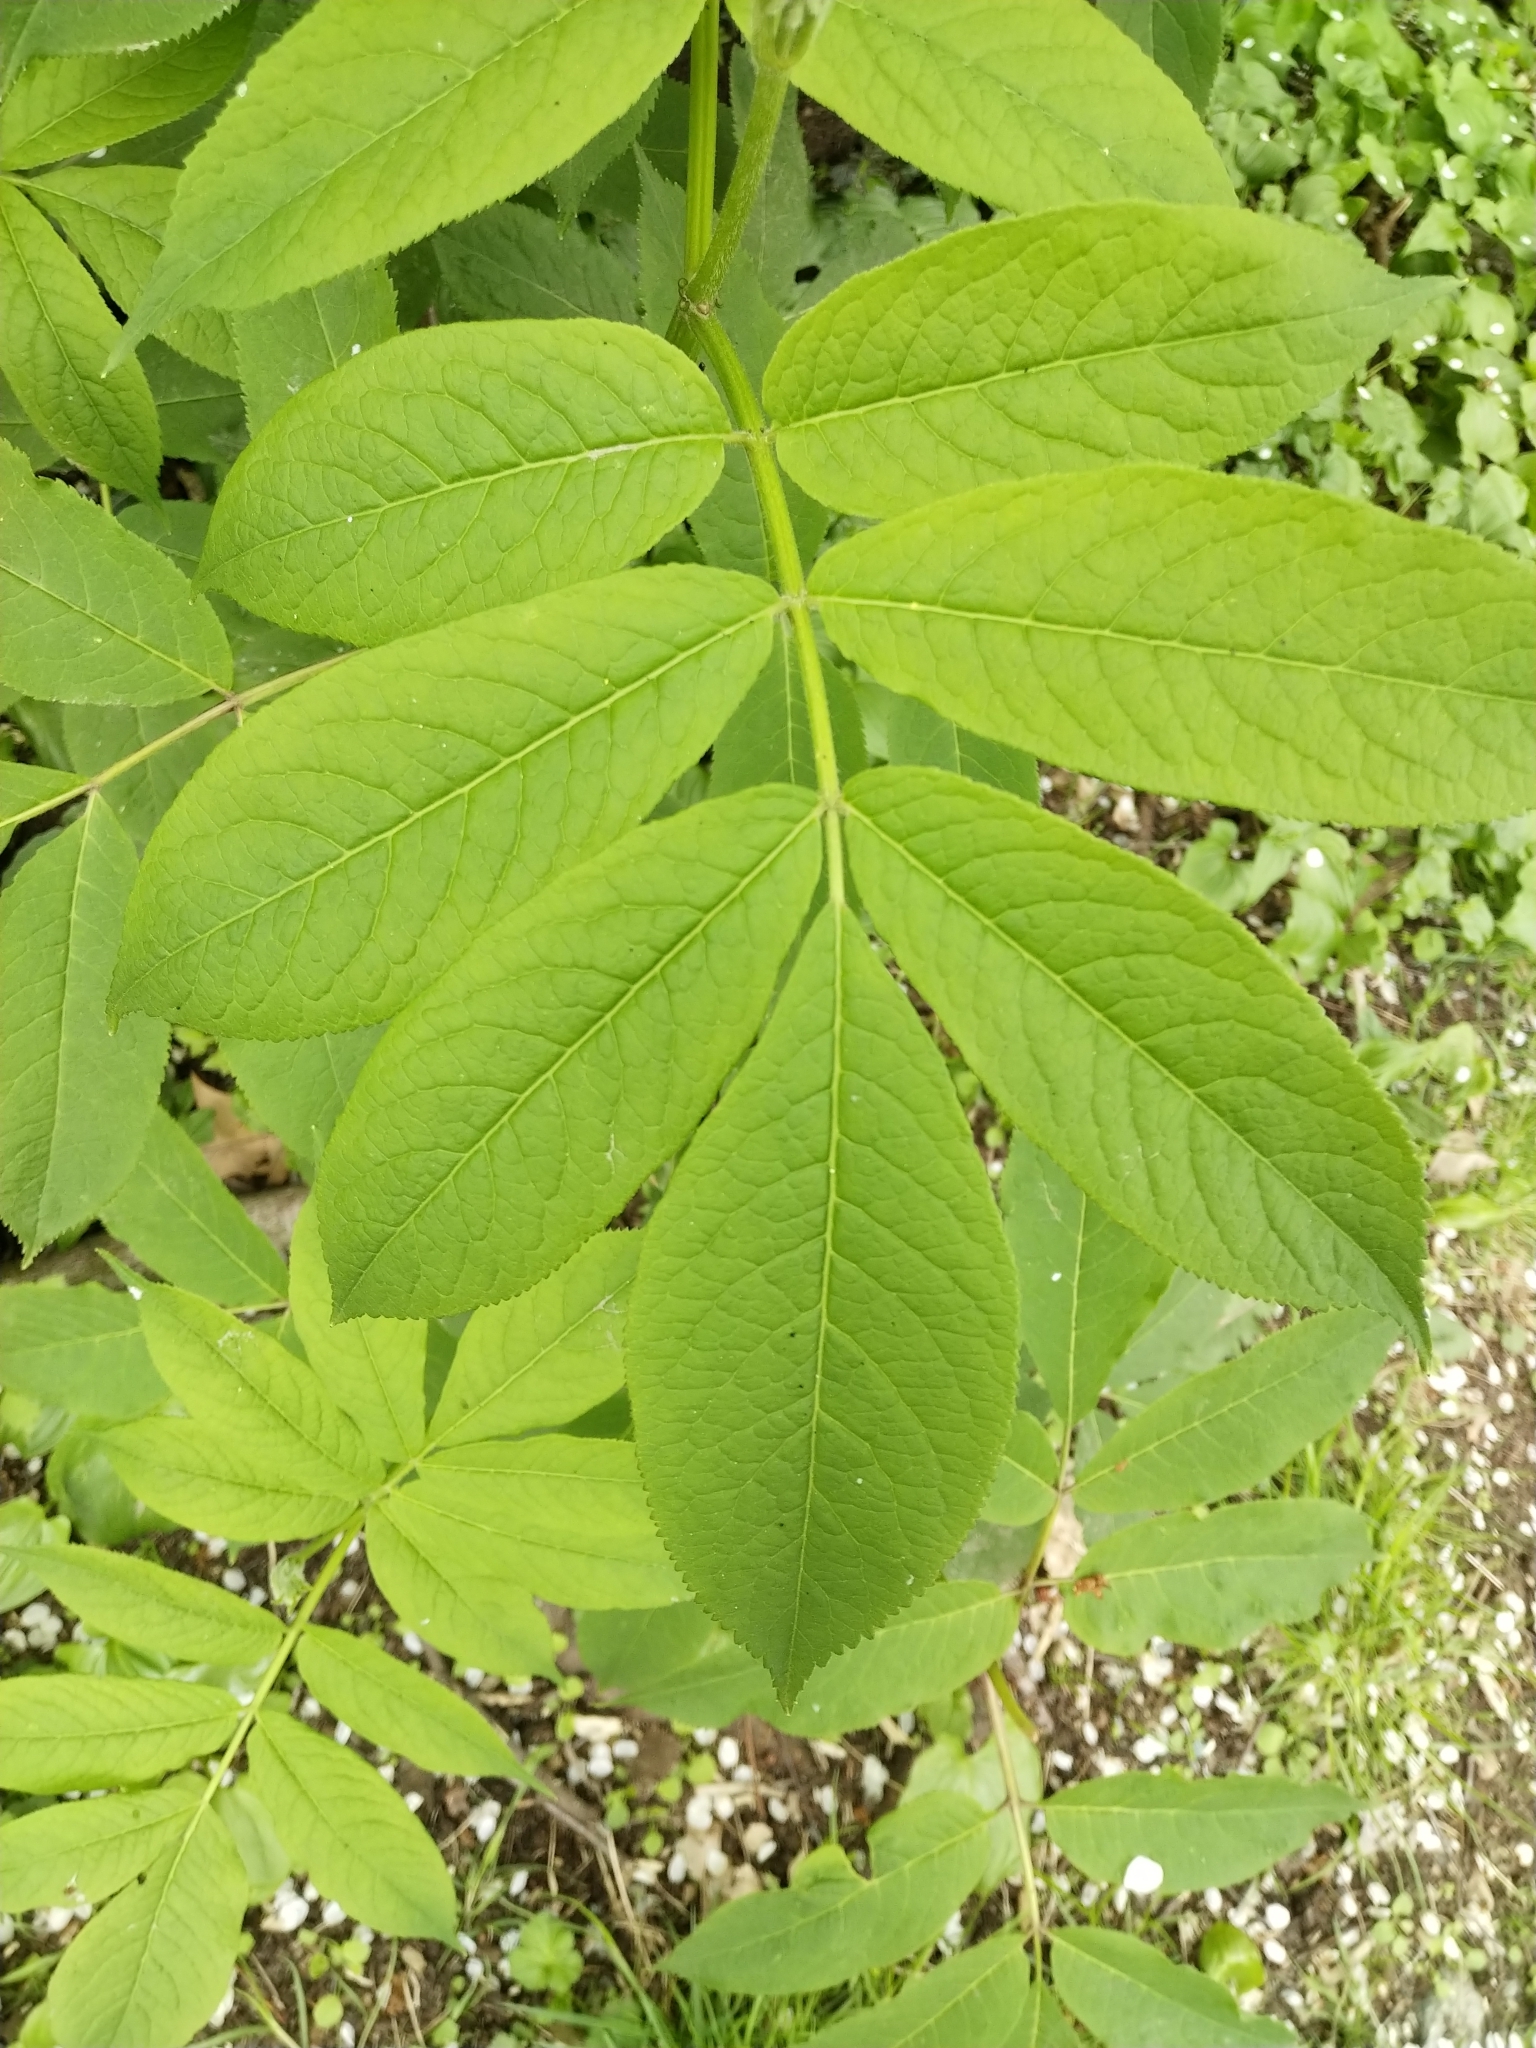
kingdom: Plantae
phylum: Tracheophyta
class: Magnoliopsida
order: Dipsacales
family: Viburnaceae
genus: Sambucus
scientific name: Sambucus racemosa
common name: Red-berried elder
